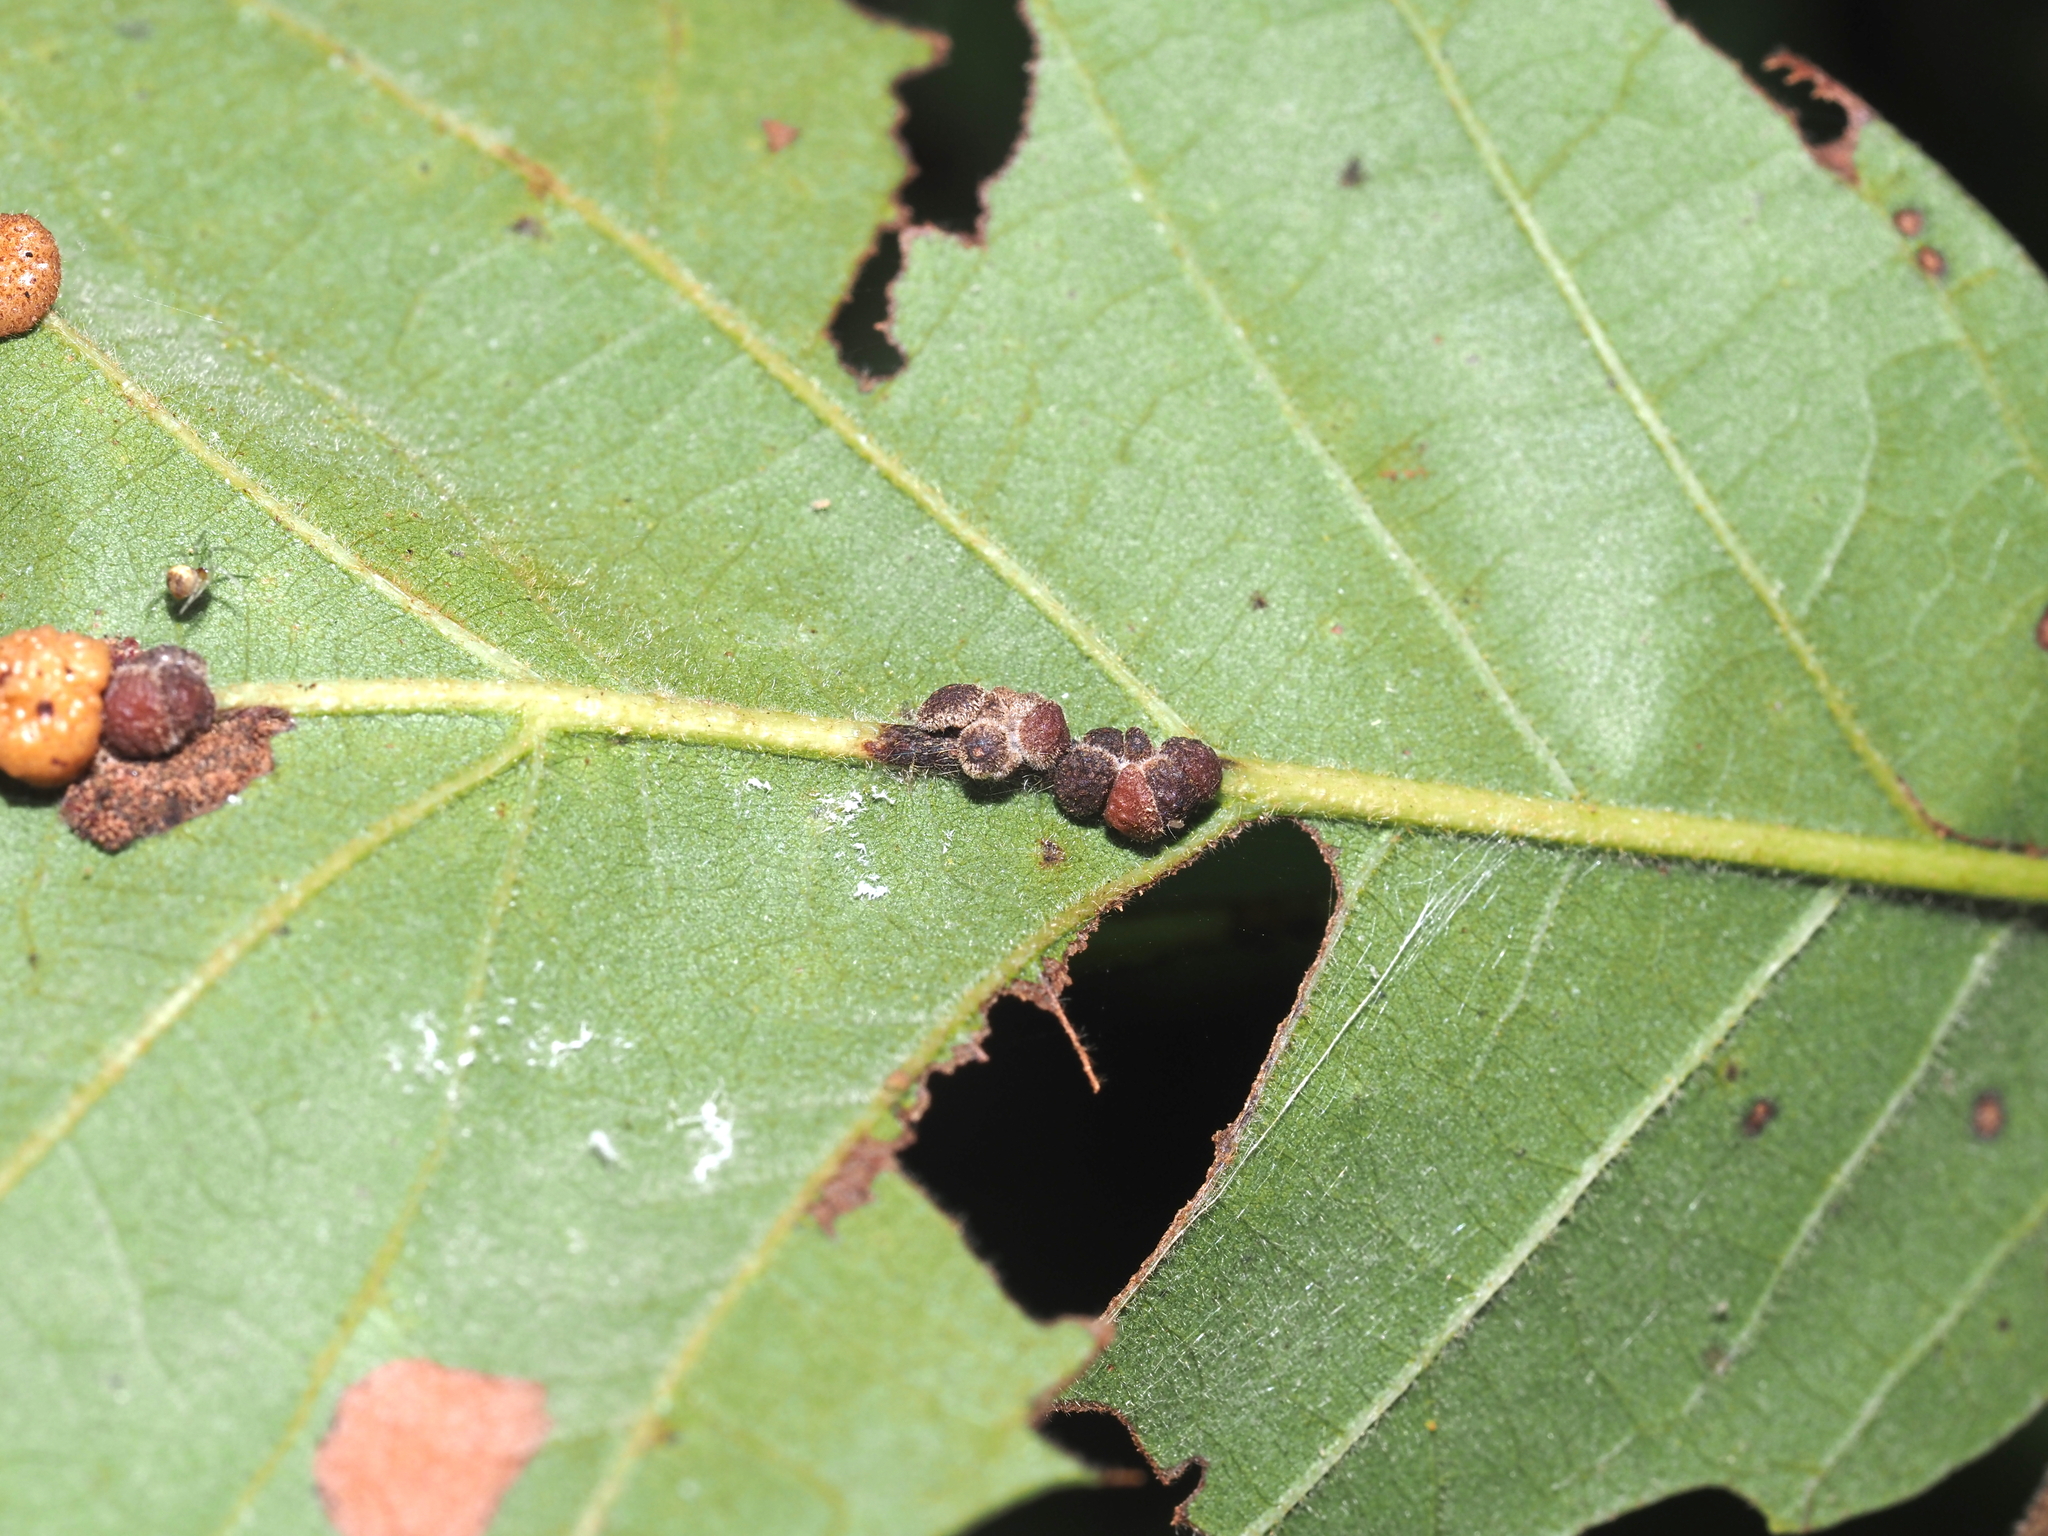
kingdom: Animalia
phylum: Arthropoda
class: Insecta
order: Hymenoptera
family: Cynipidae
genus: Andricus
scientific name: Andricus
